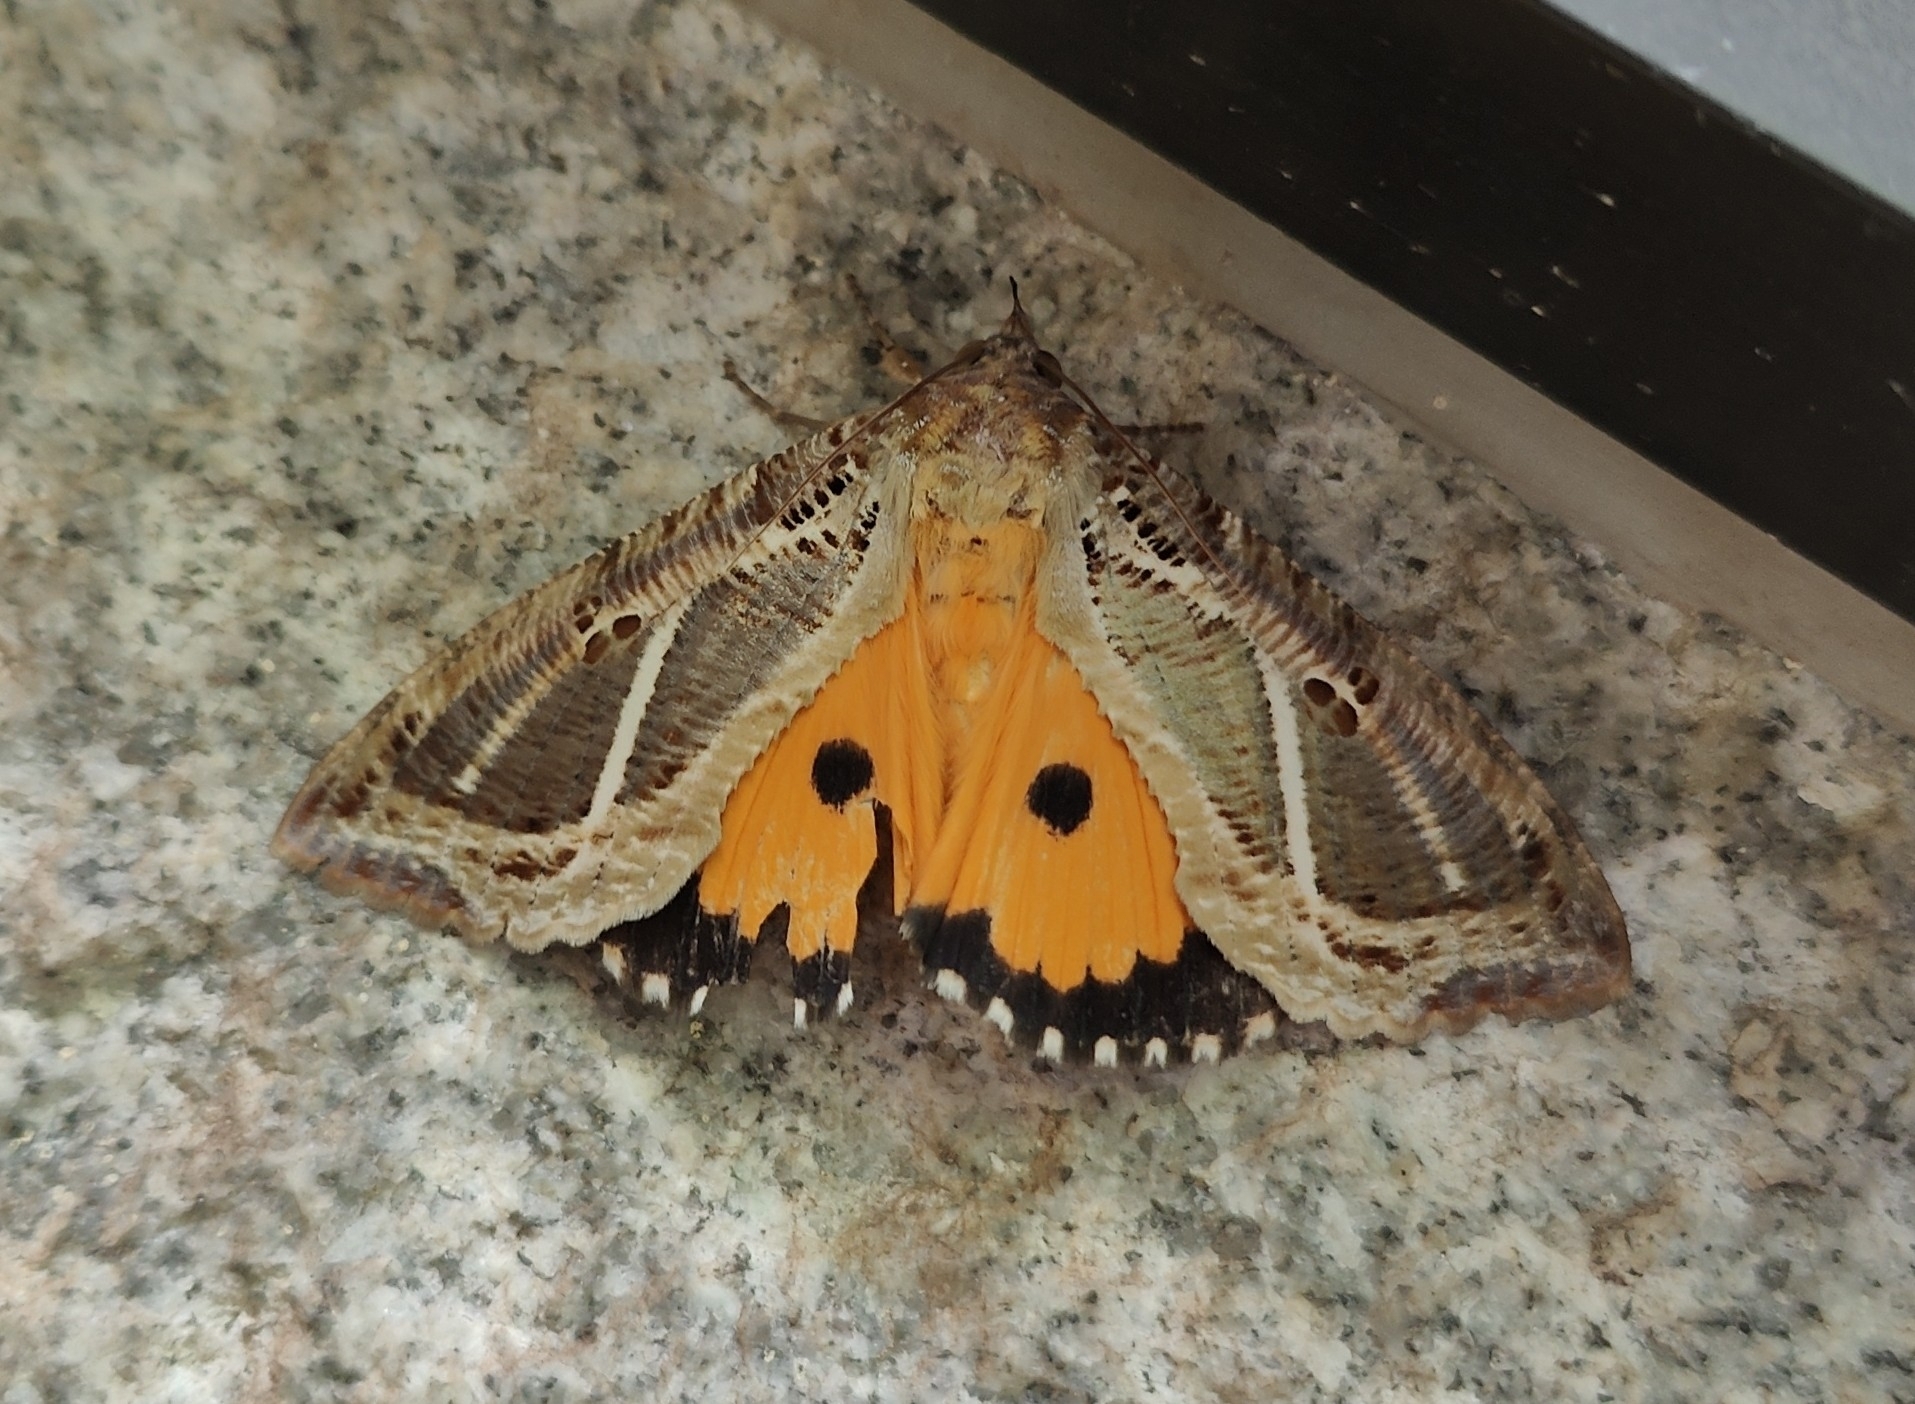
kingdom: Animalia
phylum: Arthropoda
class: Insecta
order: Lepidoptera
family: Erebidae
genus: Eudocima
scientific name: Eudocima materna
